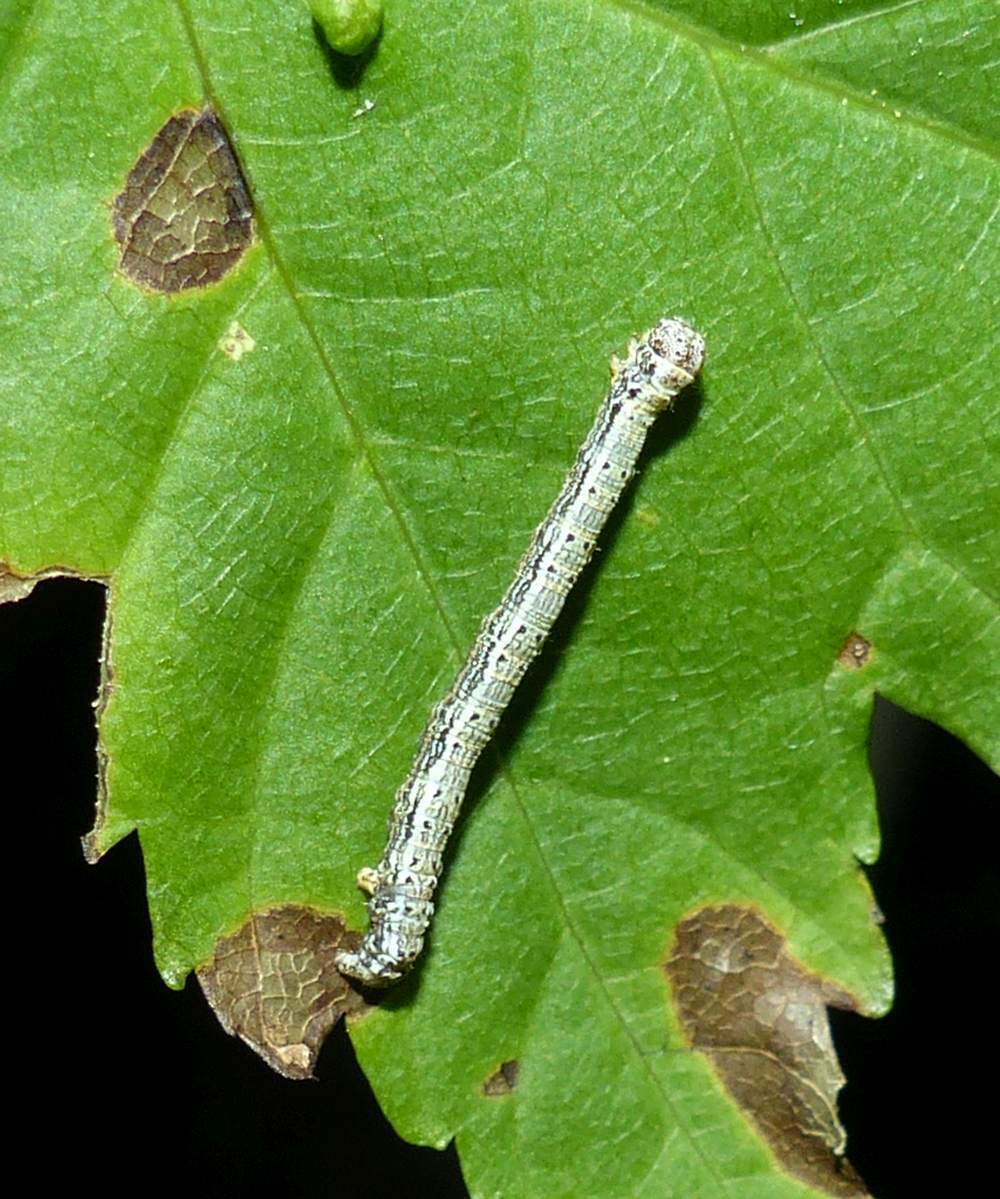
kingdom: Animalia
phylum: Arthropoda
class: Insecta
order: Lepidoptera
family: Geometridae
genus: Lambdina
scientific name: Lambdina fiscellaria
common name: Hemlock looper
